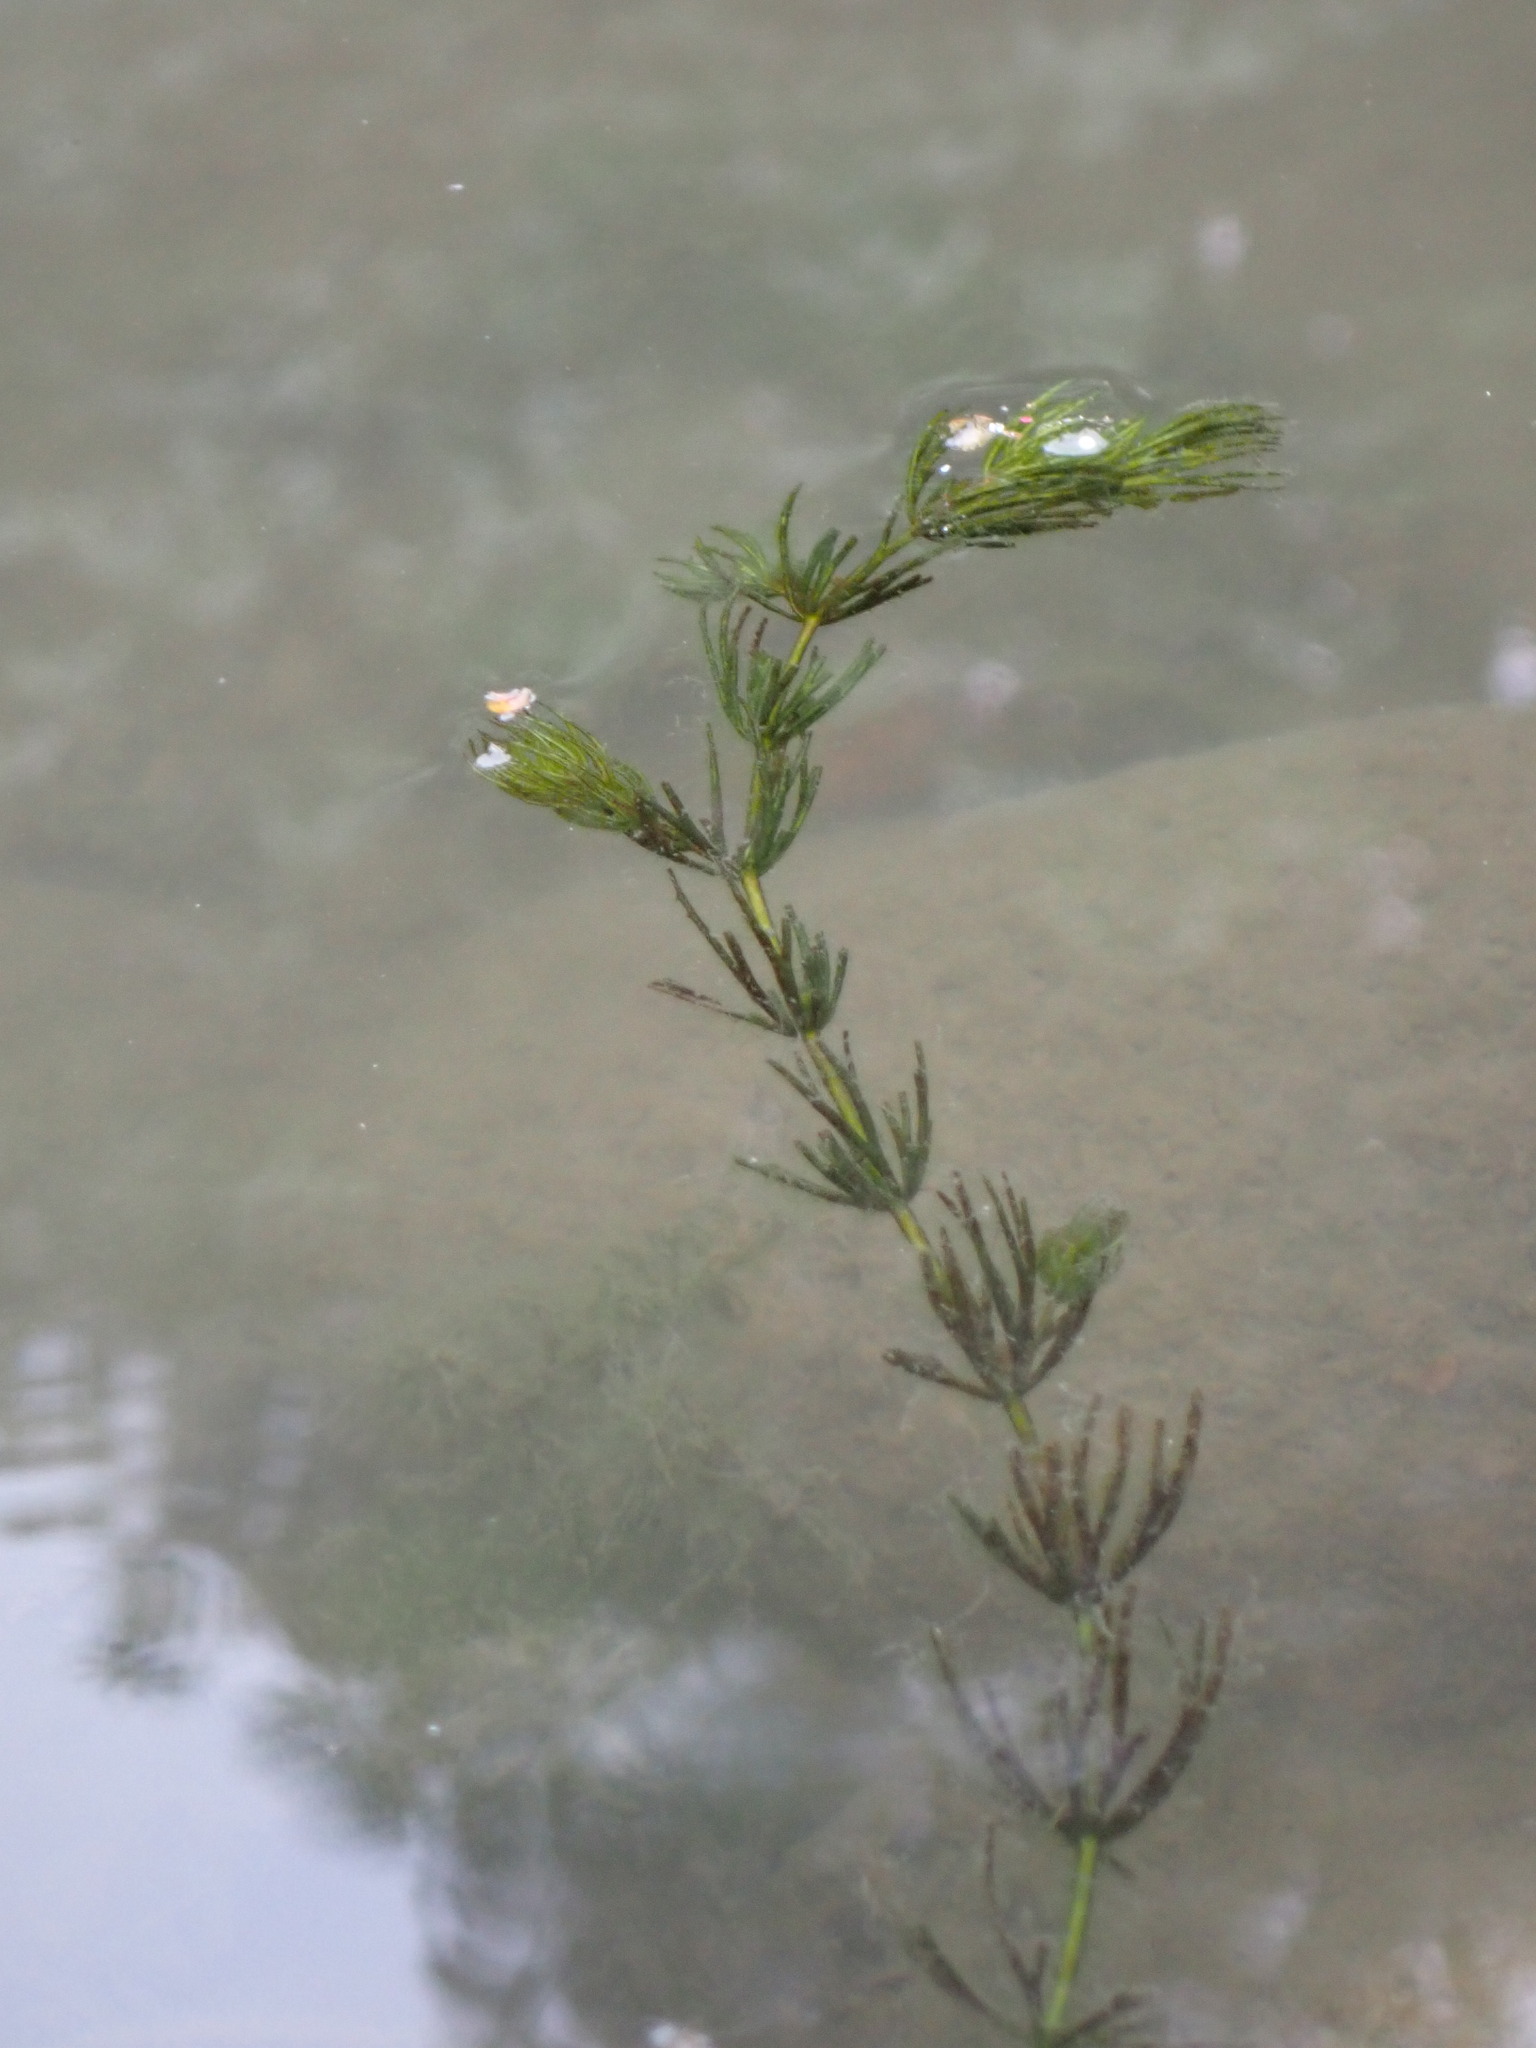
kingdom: Plantae
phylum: Tracheophyta
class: Magnoliopsida
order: Ceratophyllales
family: Ceratophyllaceae
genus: Ceratophyllum
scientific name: Ceratophyllum demersum
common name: Rigid hornwort
